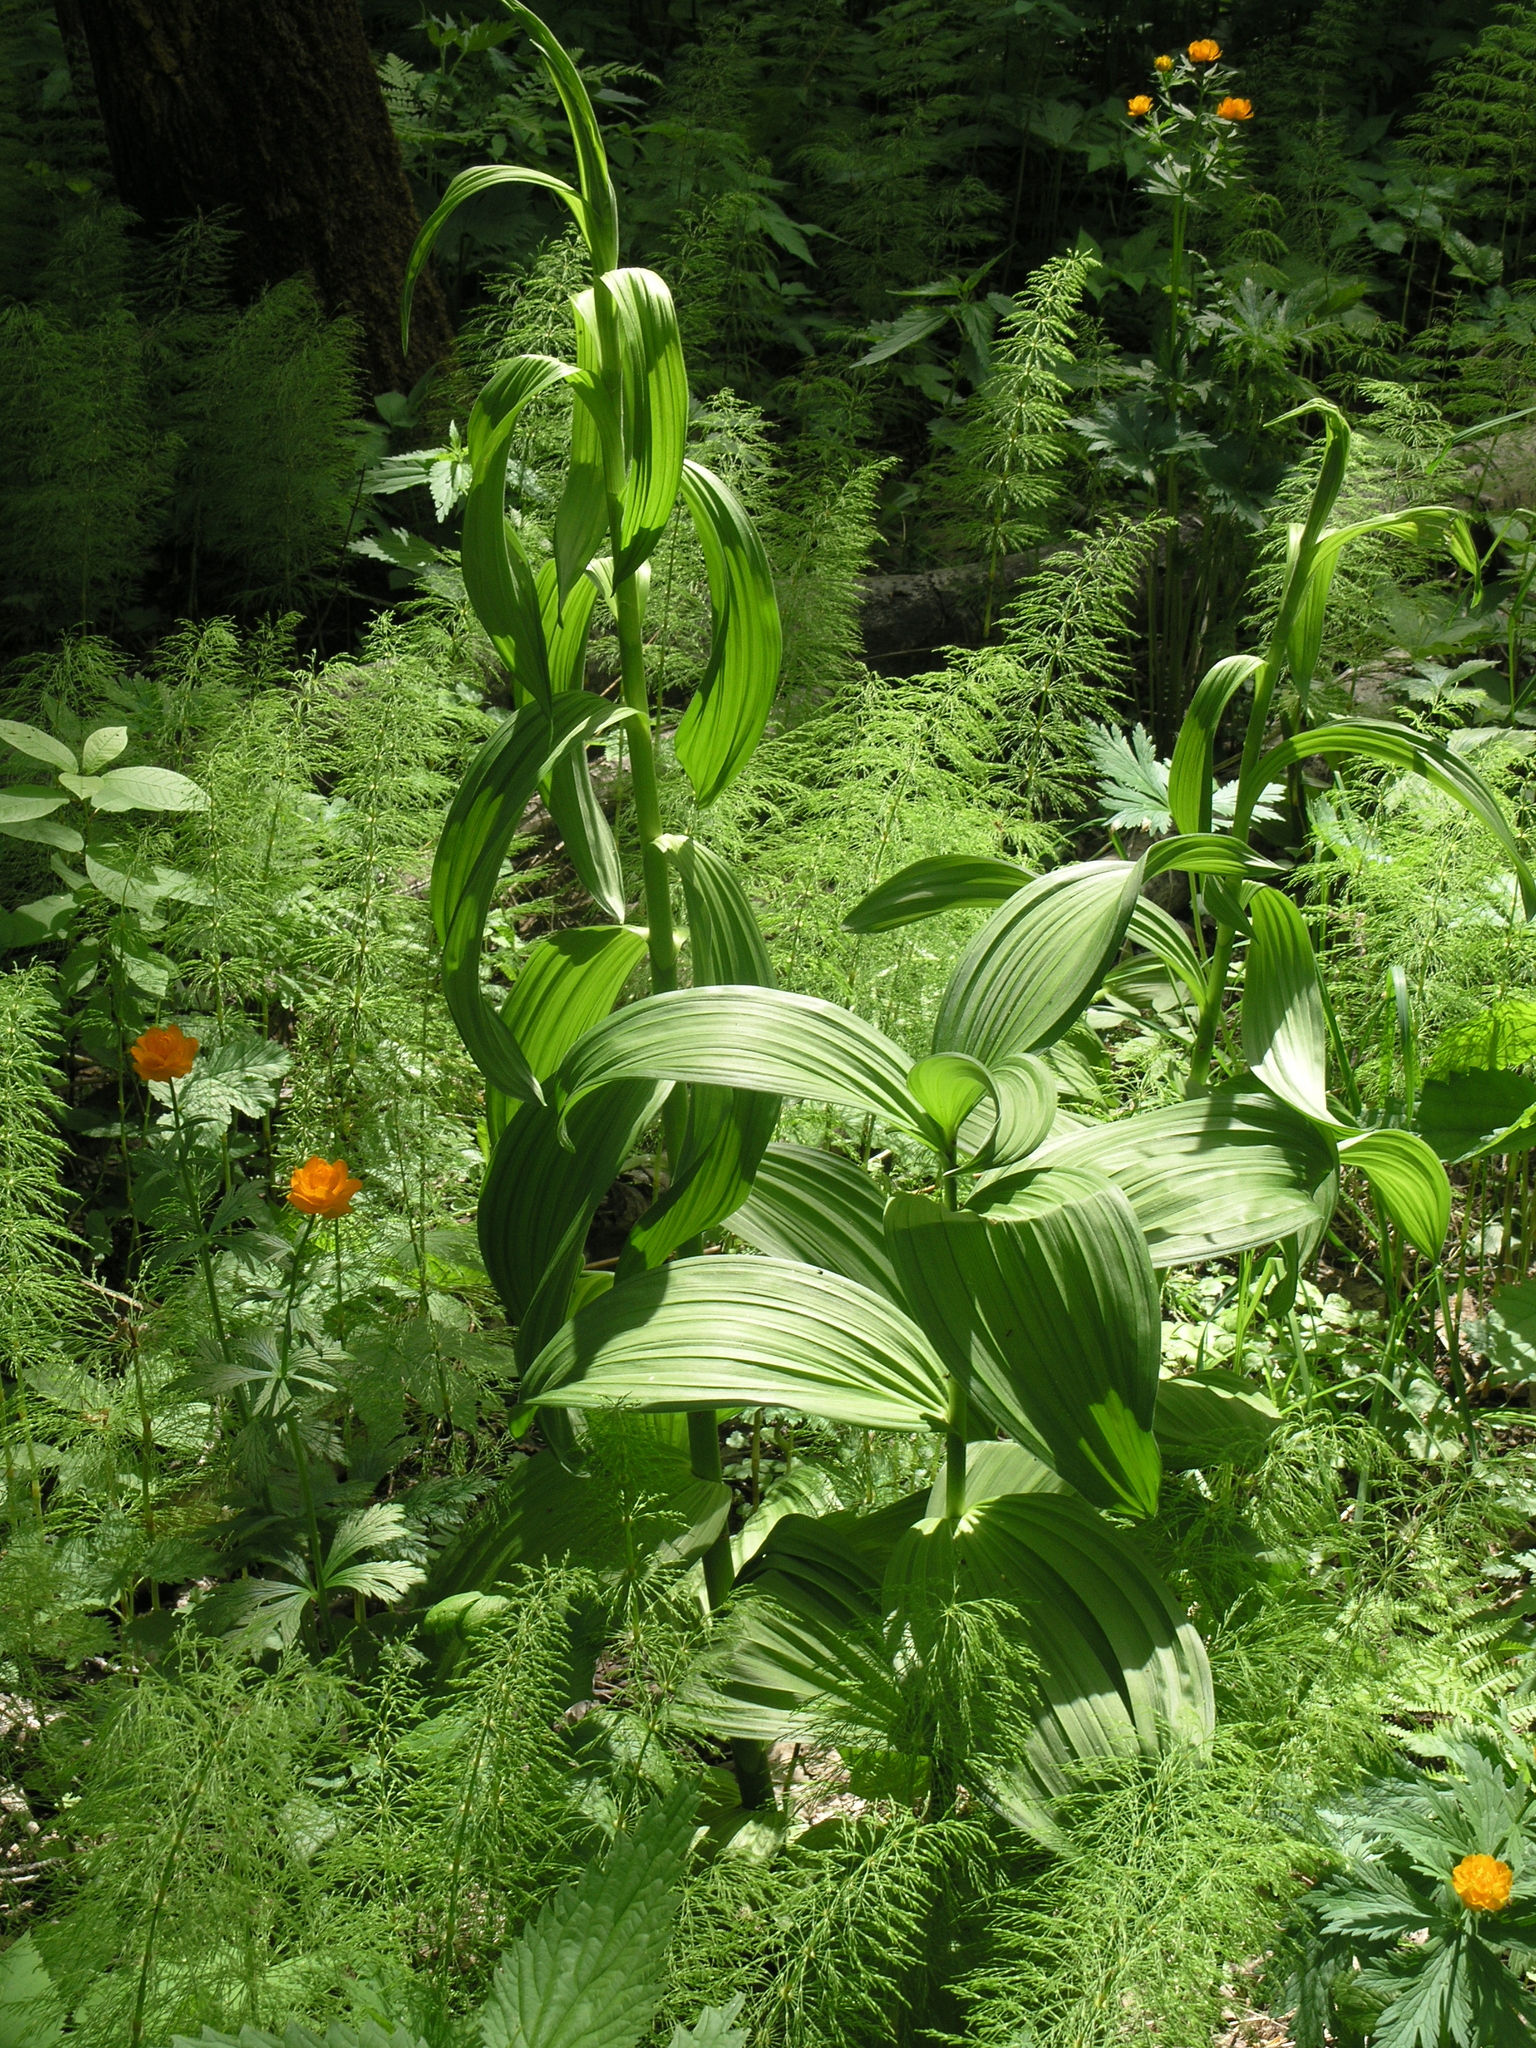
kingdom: Plantae
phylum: Tracheophyta
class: Polypodiopsida
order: Equisetales
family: Equisetaceae
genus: Equisetum
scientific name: Equisetum sylvaticum
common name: Wood horsetail
